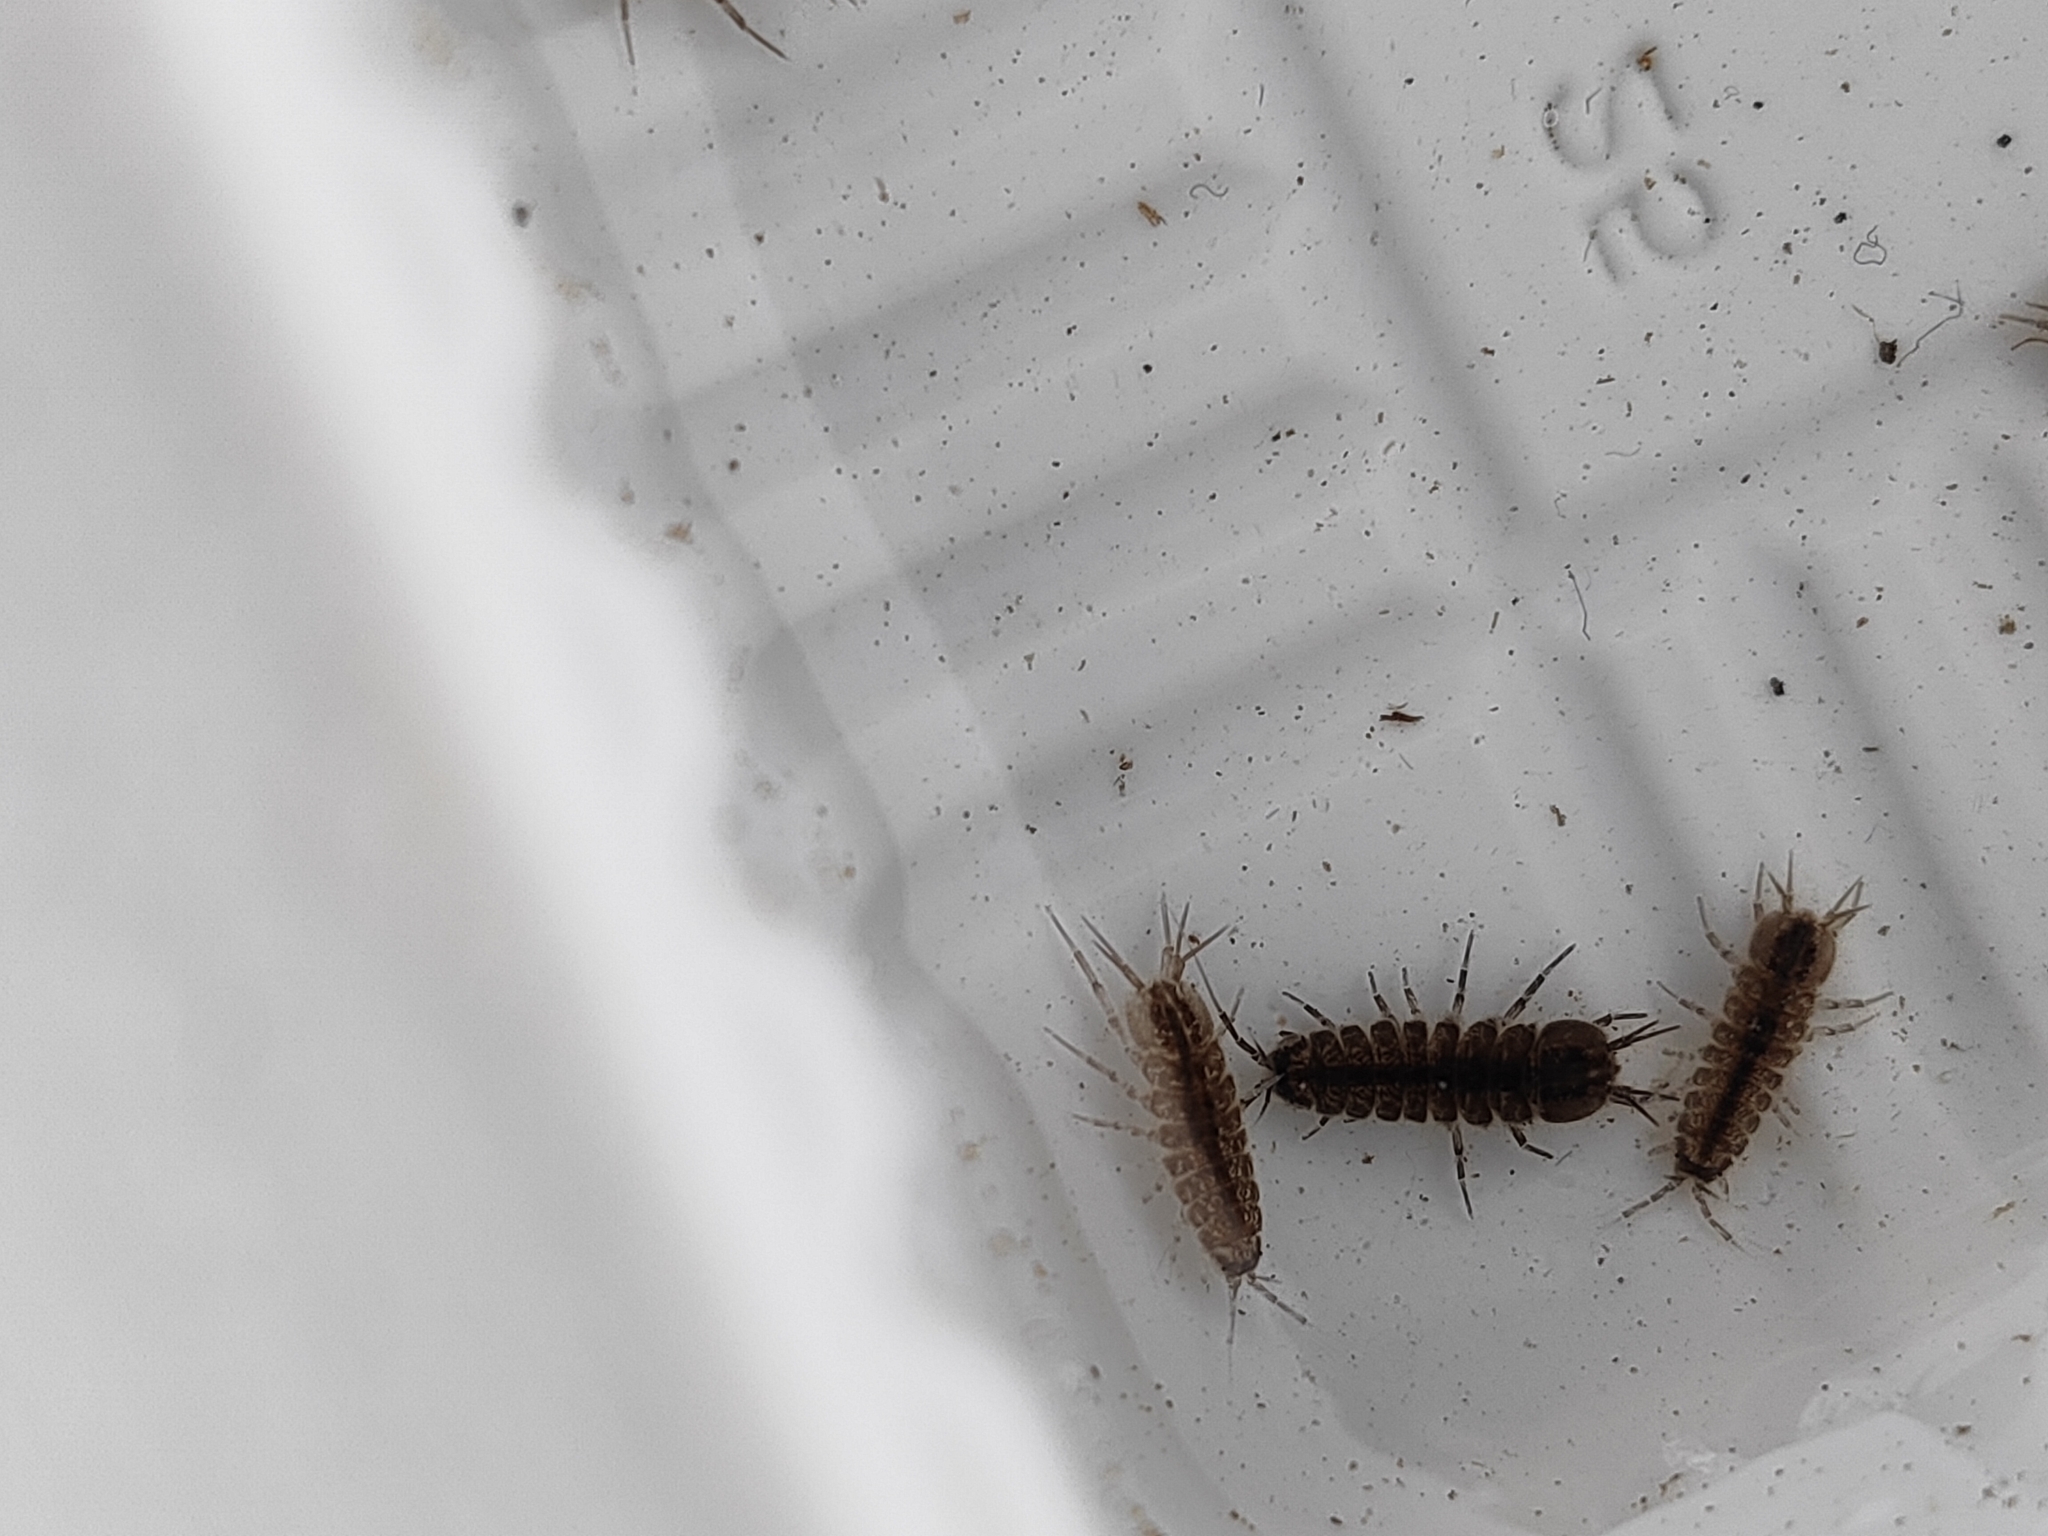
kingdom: Animalia
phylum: Arthropoda
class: Malacostraca
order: Isopoda
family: Asellidae
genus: Asellus
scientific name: Asellus hilgendorfii
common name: Isopod
